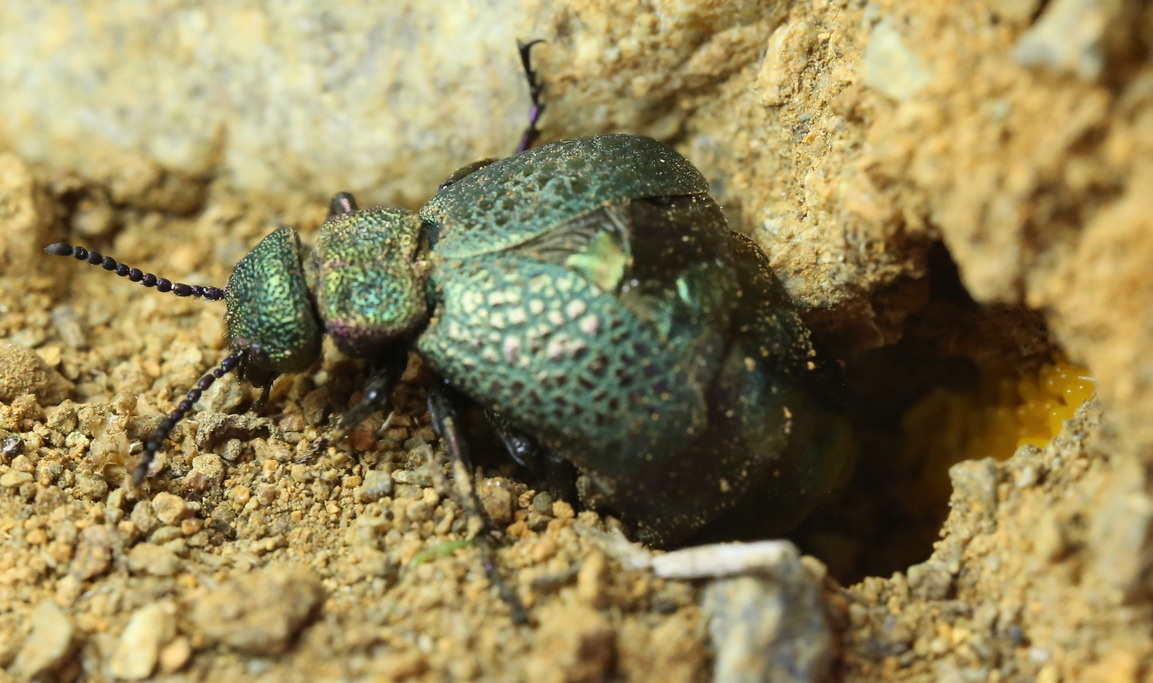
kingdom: Animalia
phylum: Arthropoda
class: Insecta
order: Coleoptera
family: Meloidae
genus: Meloe
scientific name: Meloe cavensis
